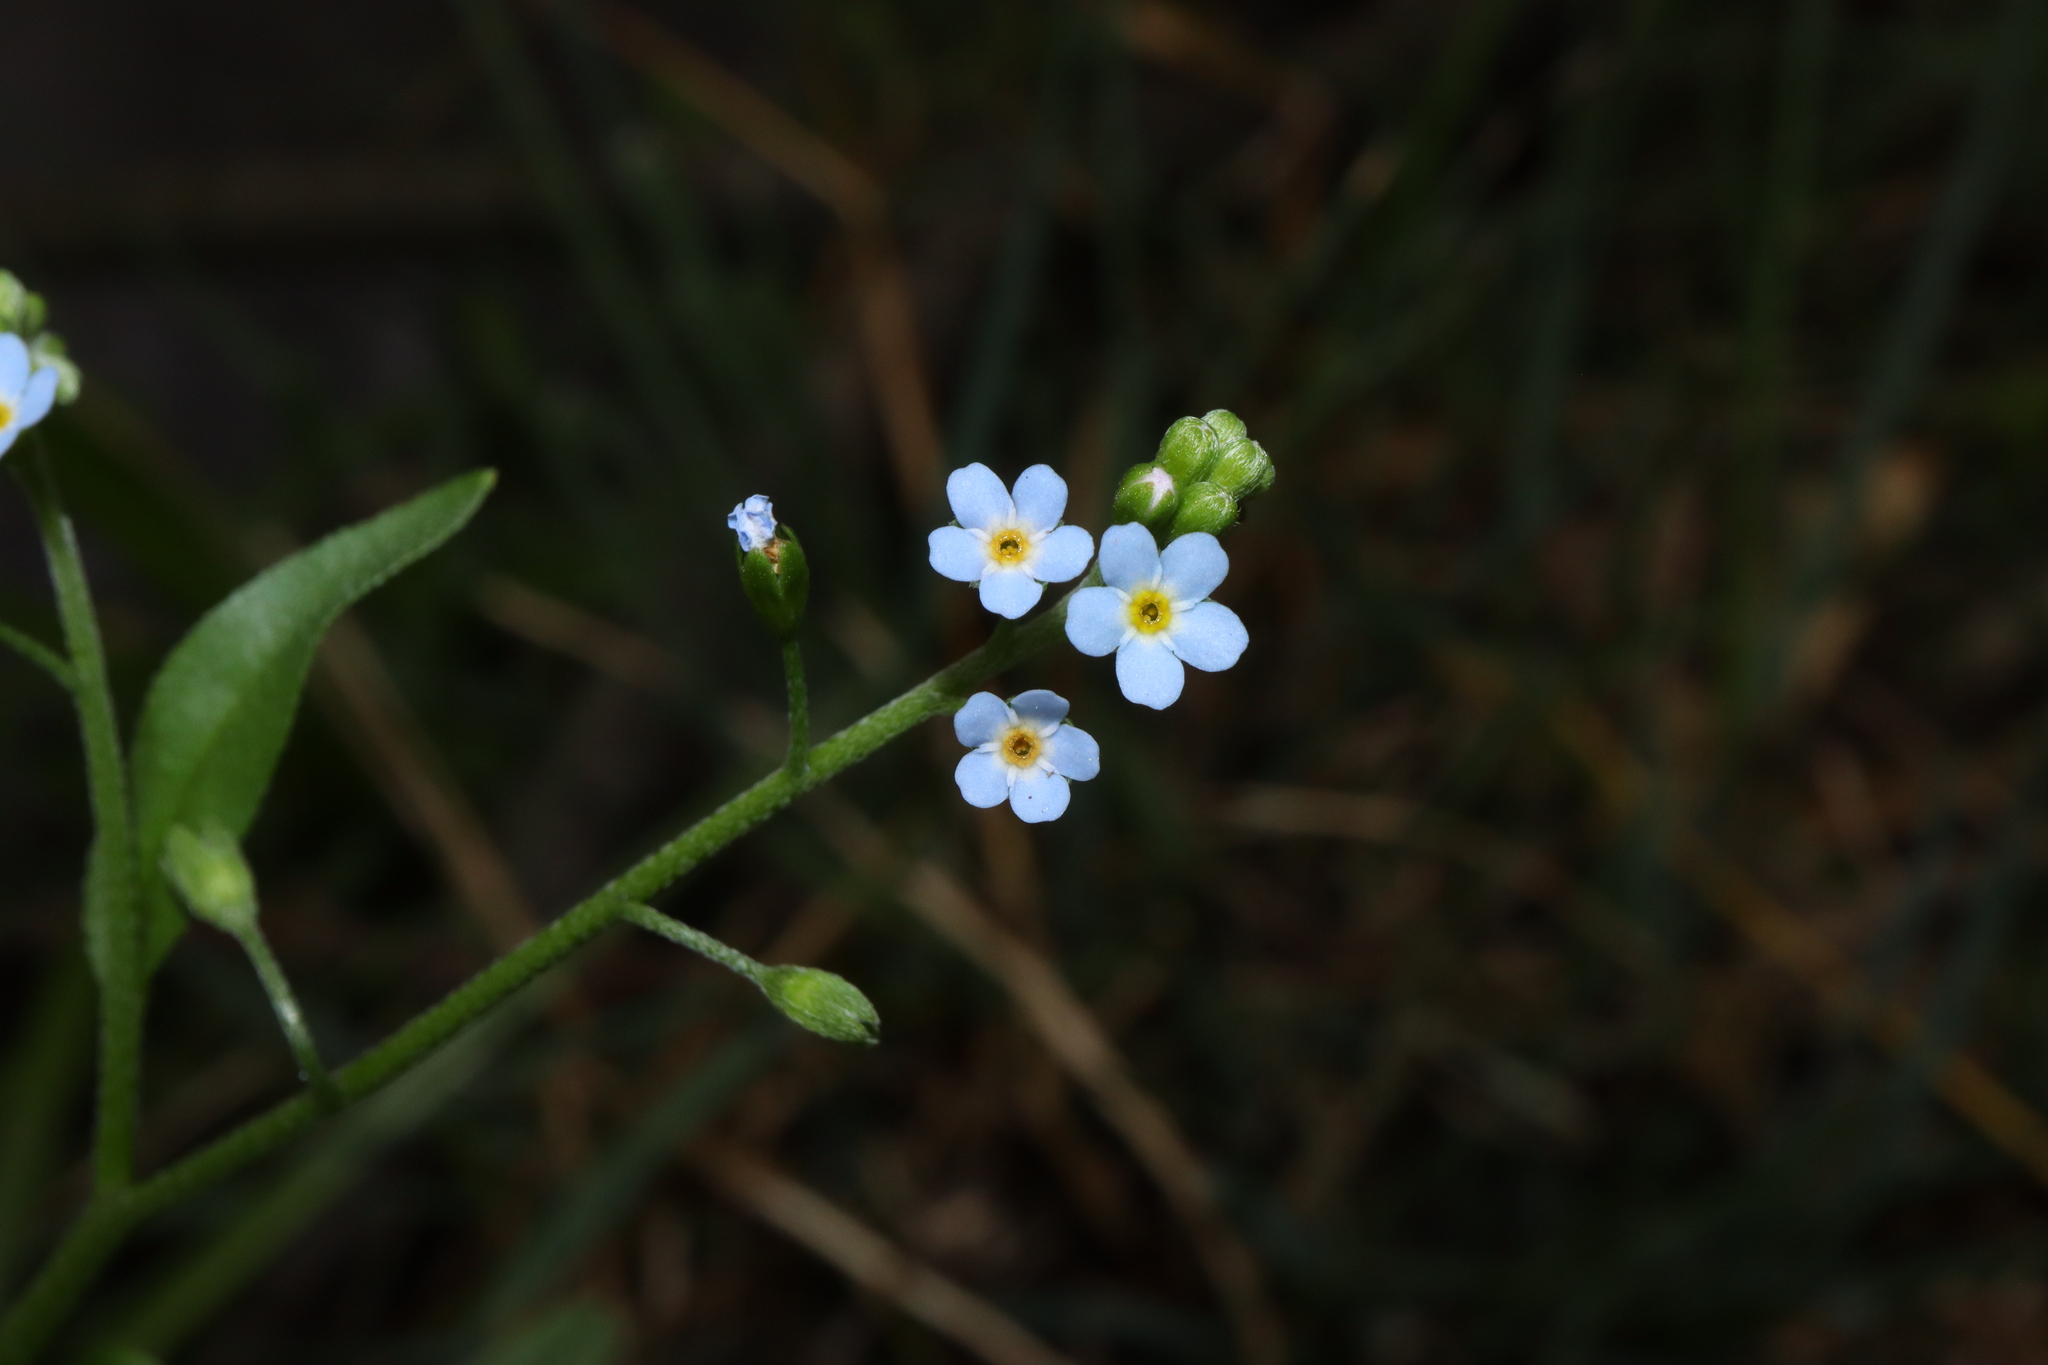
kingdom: Plantae
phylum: Tracheophyta
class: Magnoliopsida
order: Boraginales
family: Boraginaceae
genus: Myosotis
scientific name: Myosotis laxa
